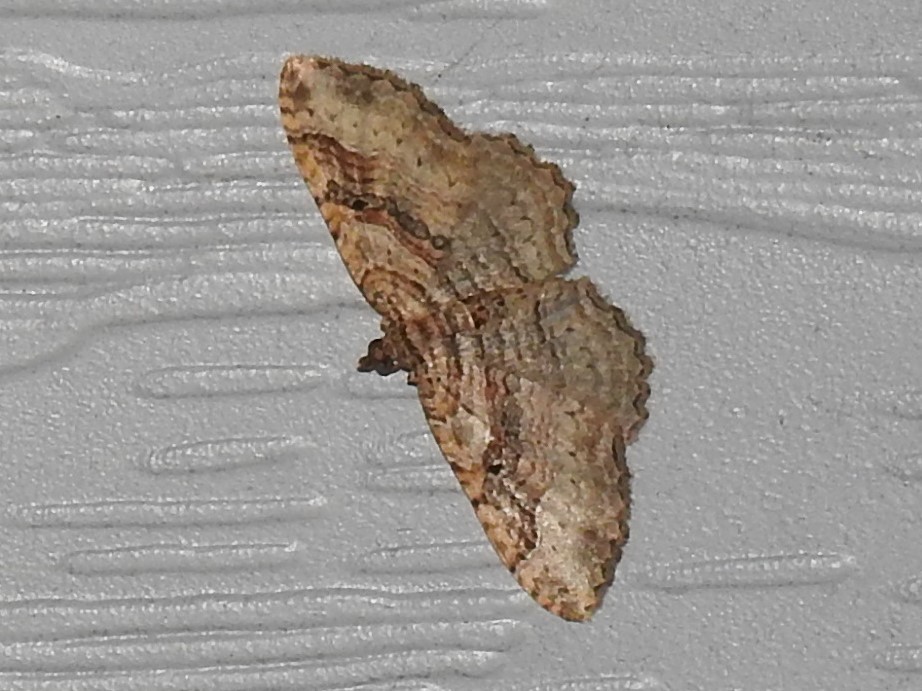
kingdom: Animalia
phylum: Arthropoda
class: Insecta
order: Lepidoptera
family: Geometridae
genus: Costaconvexa
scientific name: Costaconvexa centrostrigaria
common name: Bent-line carpet
